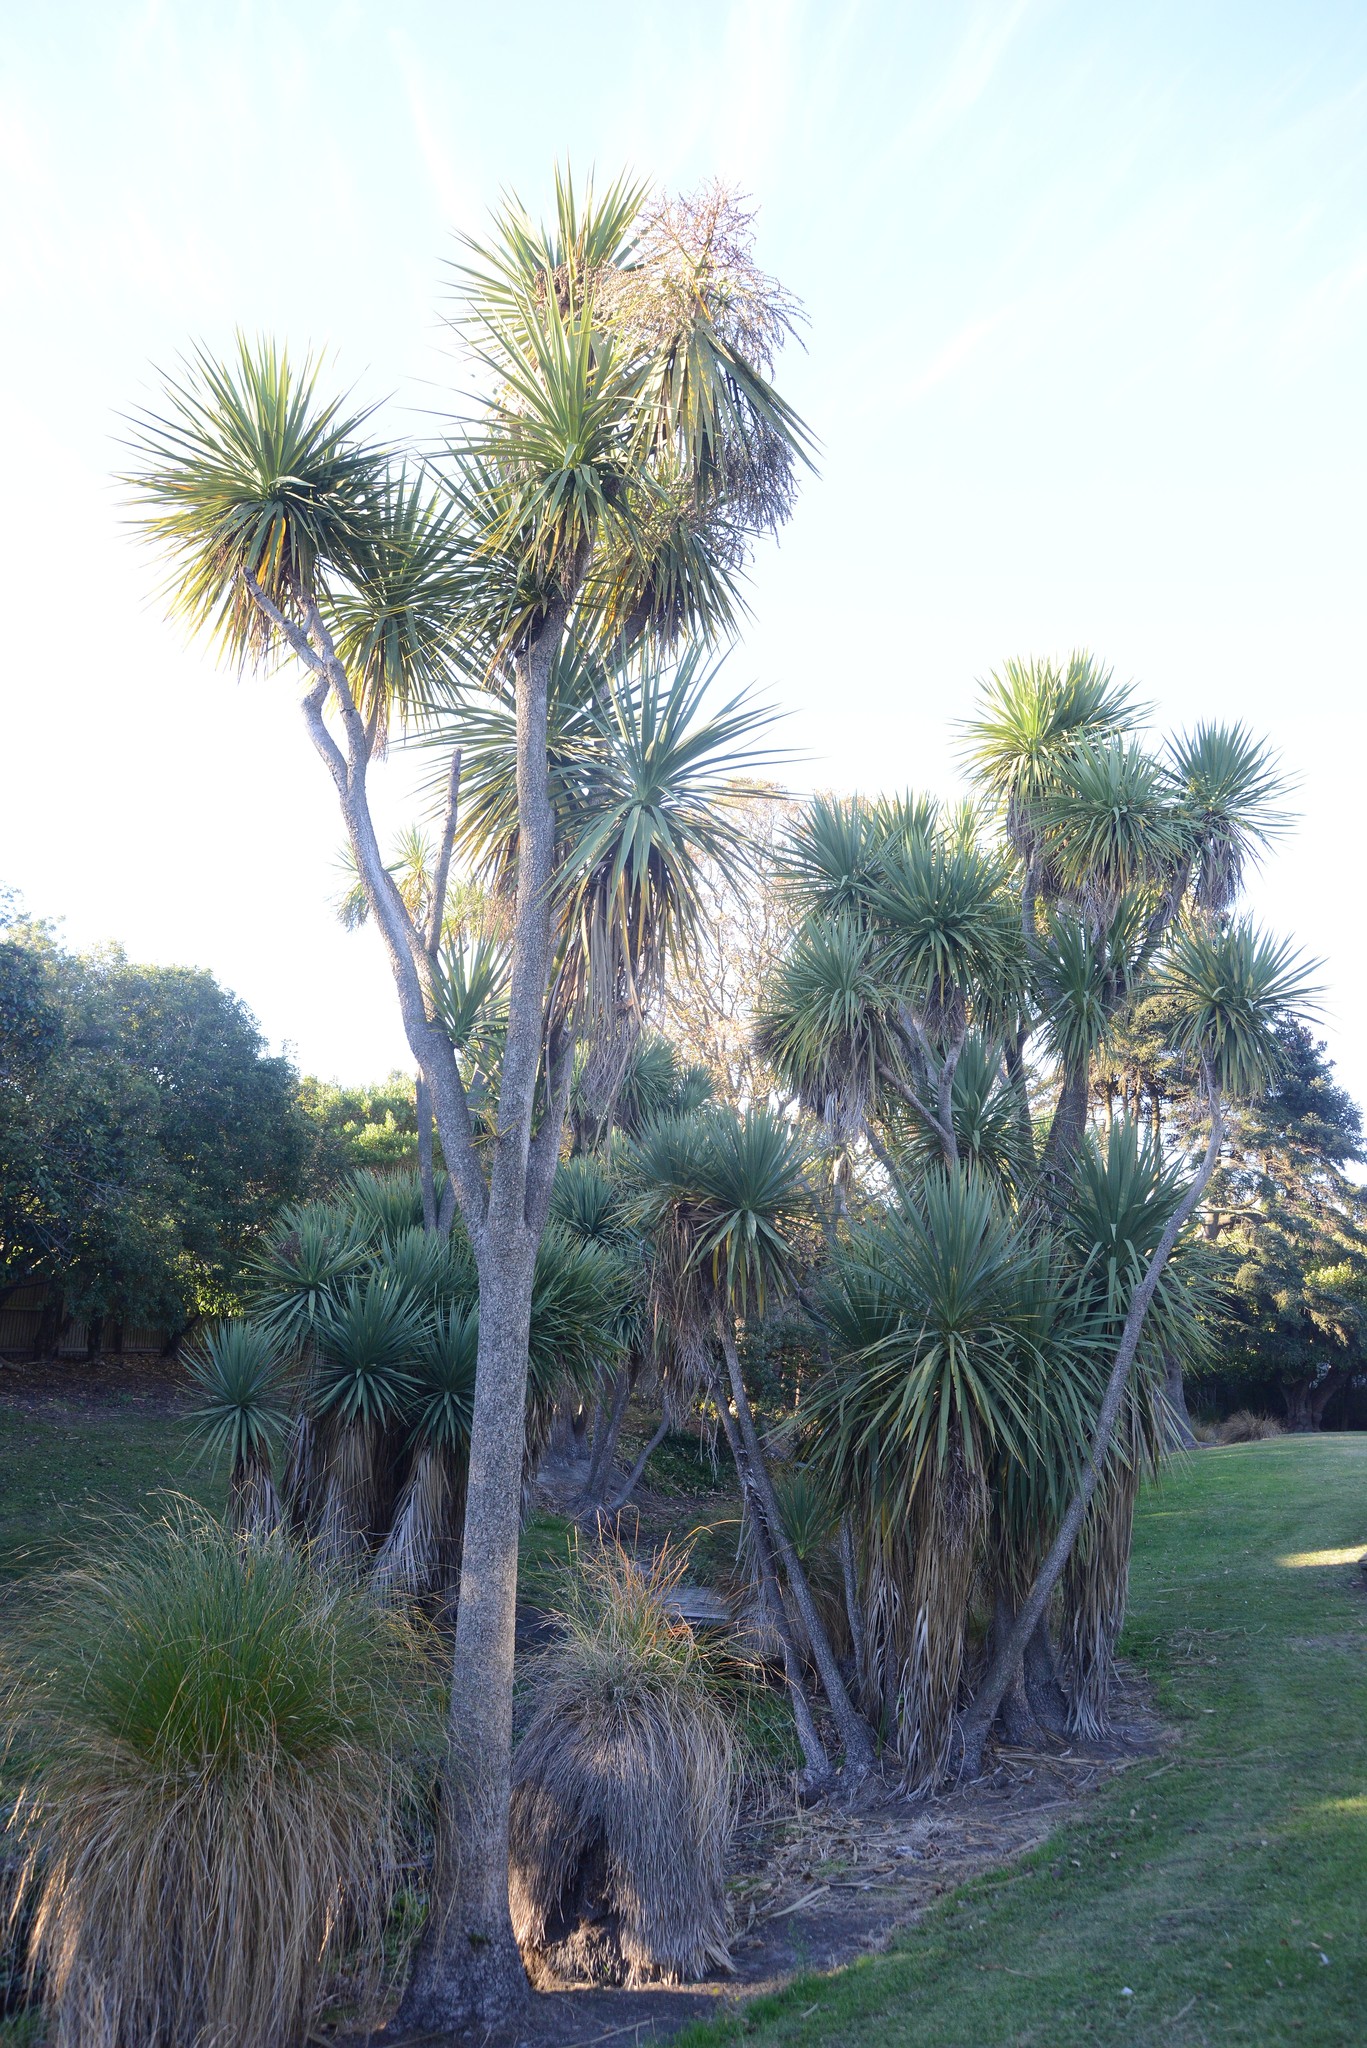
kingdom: Plantae
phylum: Tracheophyta
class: Liliopsida
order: Asparagales
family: Asparagaceae
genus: Cordyline
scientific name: Cordyline australis
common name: Cabbage-palm
